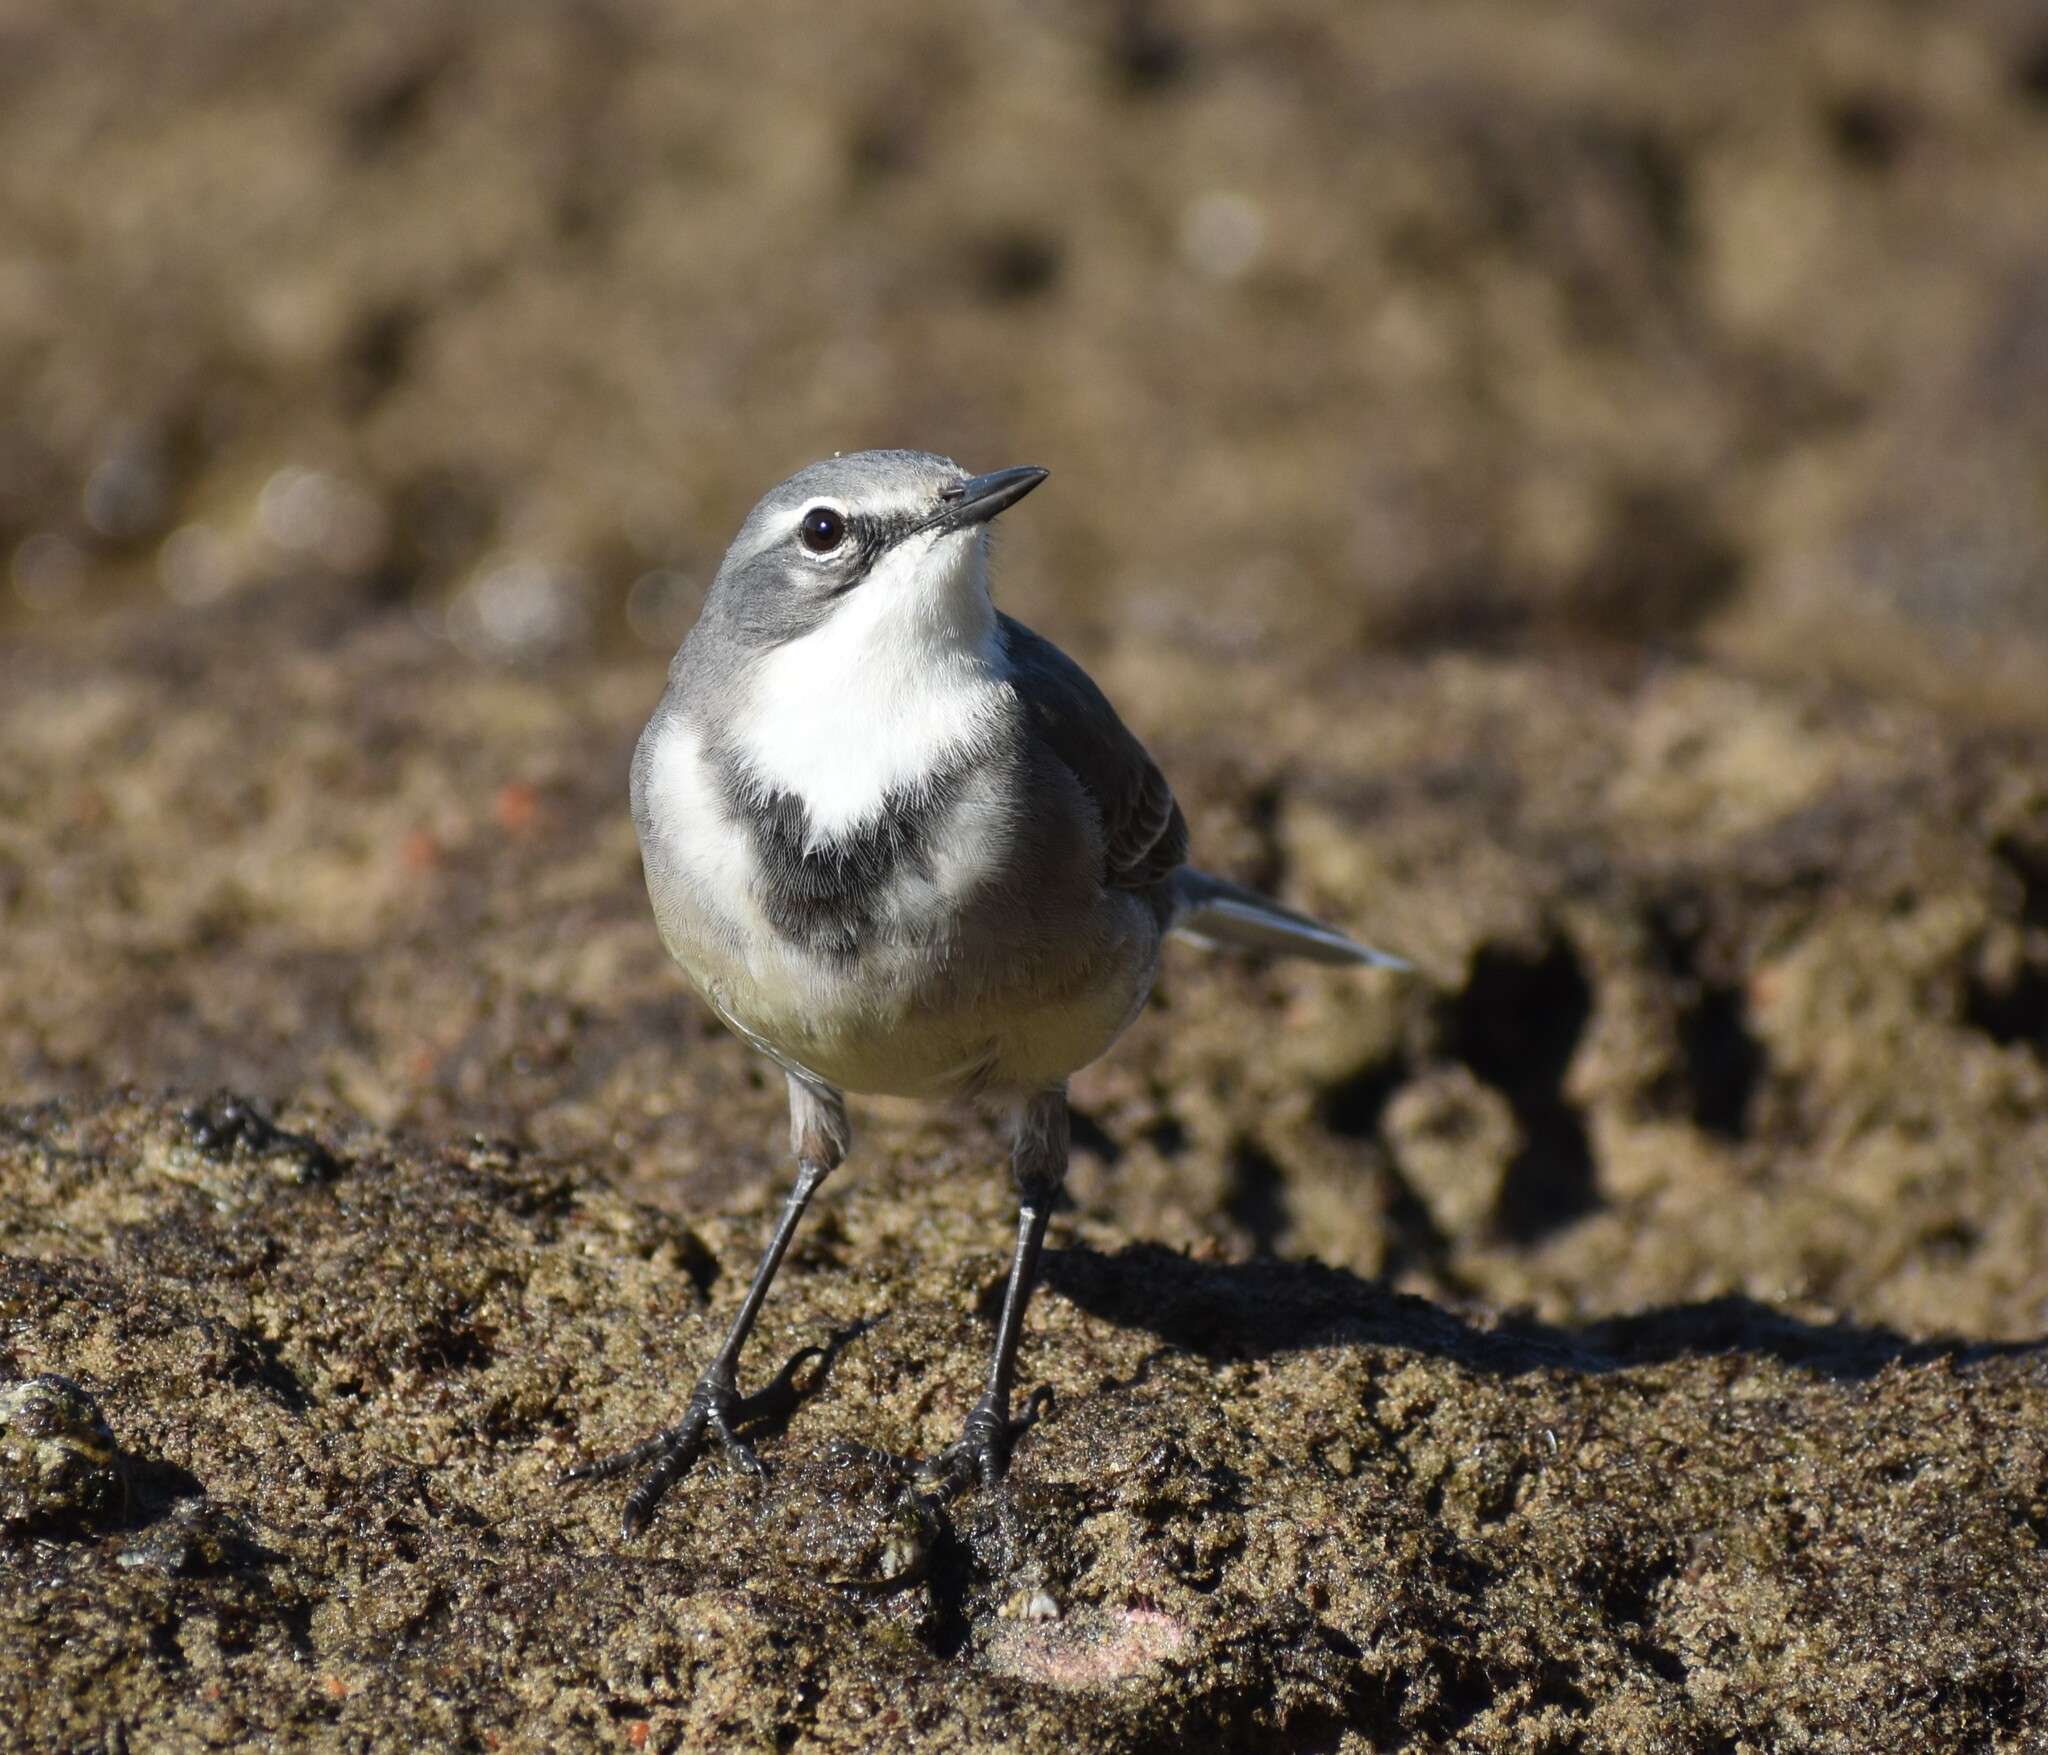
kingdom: Animalia
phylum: Chordata
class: Aves
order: Passeriformes
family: Motacillidae
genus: Motacilla
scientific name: Motacilla capensis
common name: Cape wagtail
